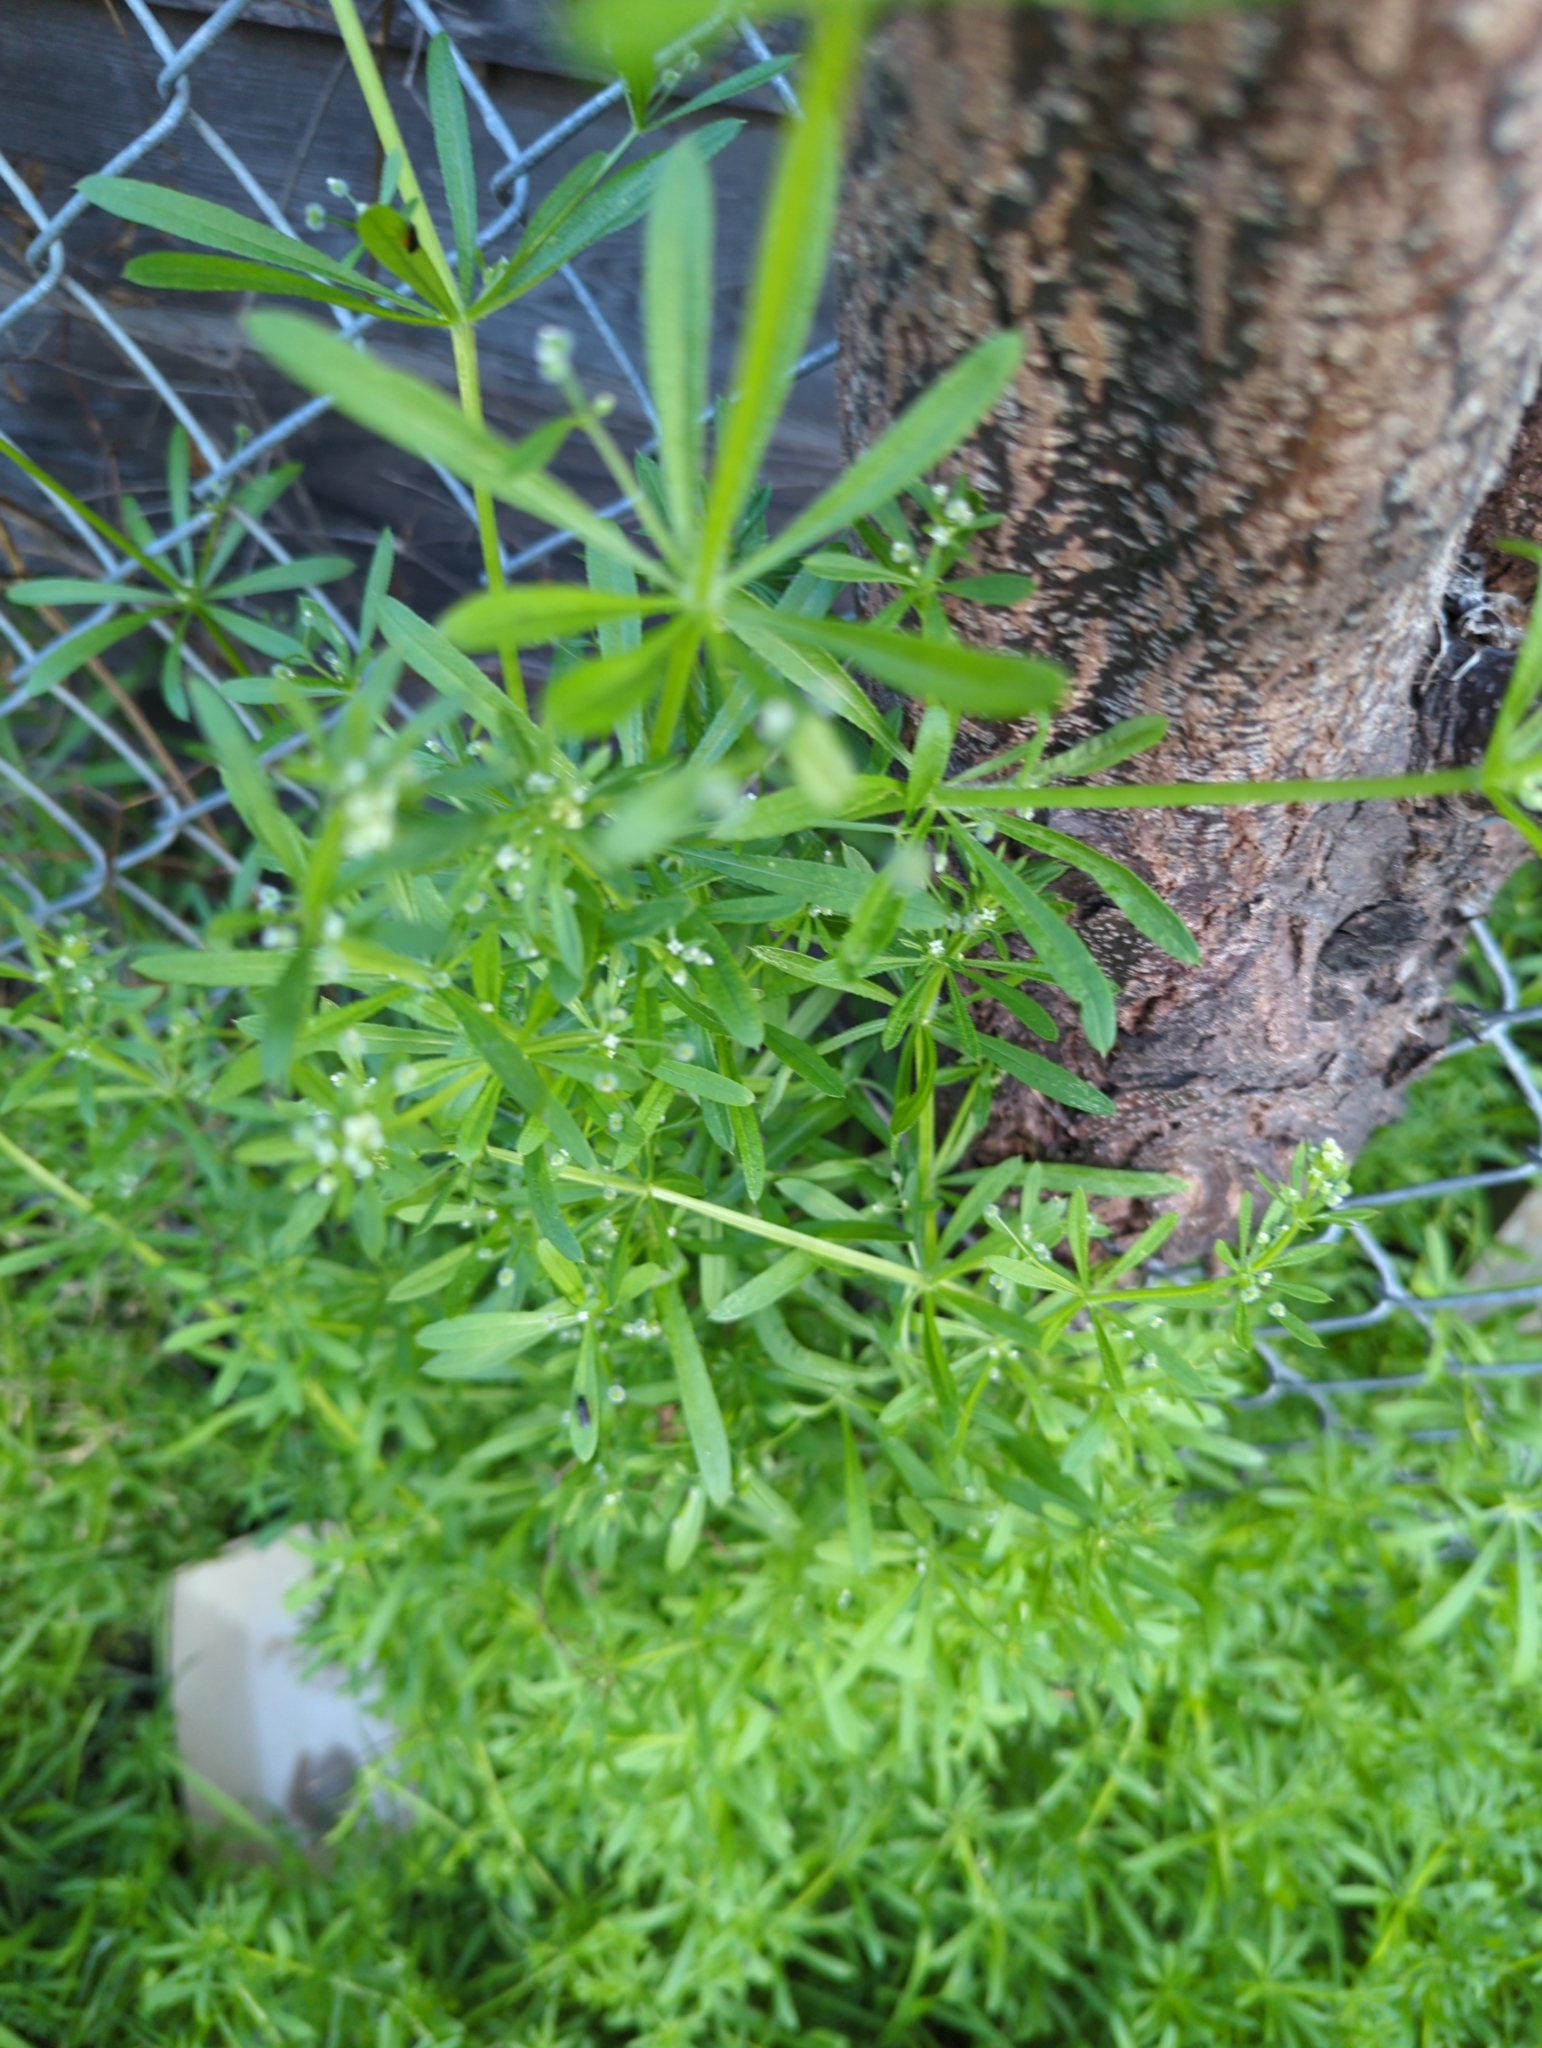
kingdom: Plantae
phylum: Tracheophyta
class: Magnoliopsida
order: Gentianales
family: Rubiaceae
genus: Galium
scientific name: Galium aparine
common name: Cleavers
